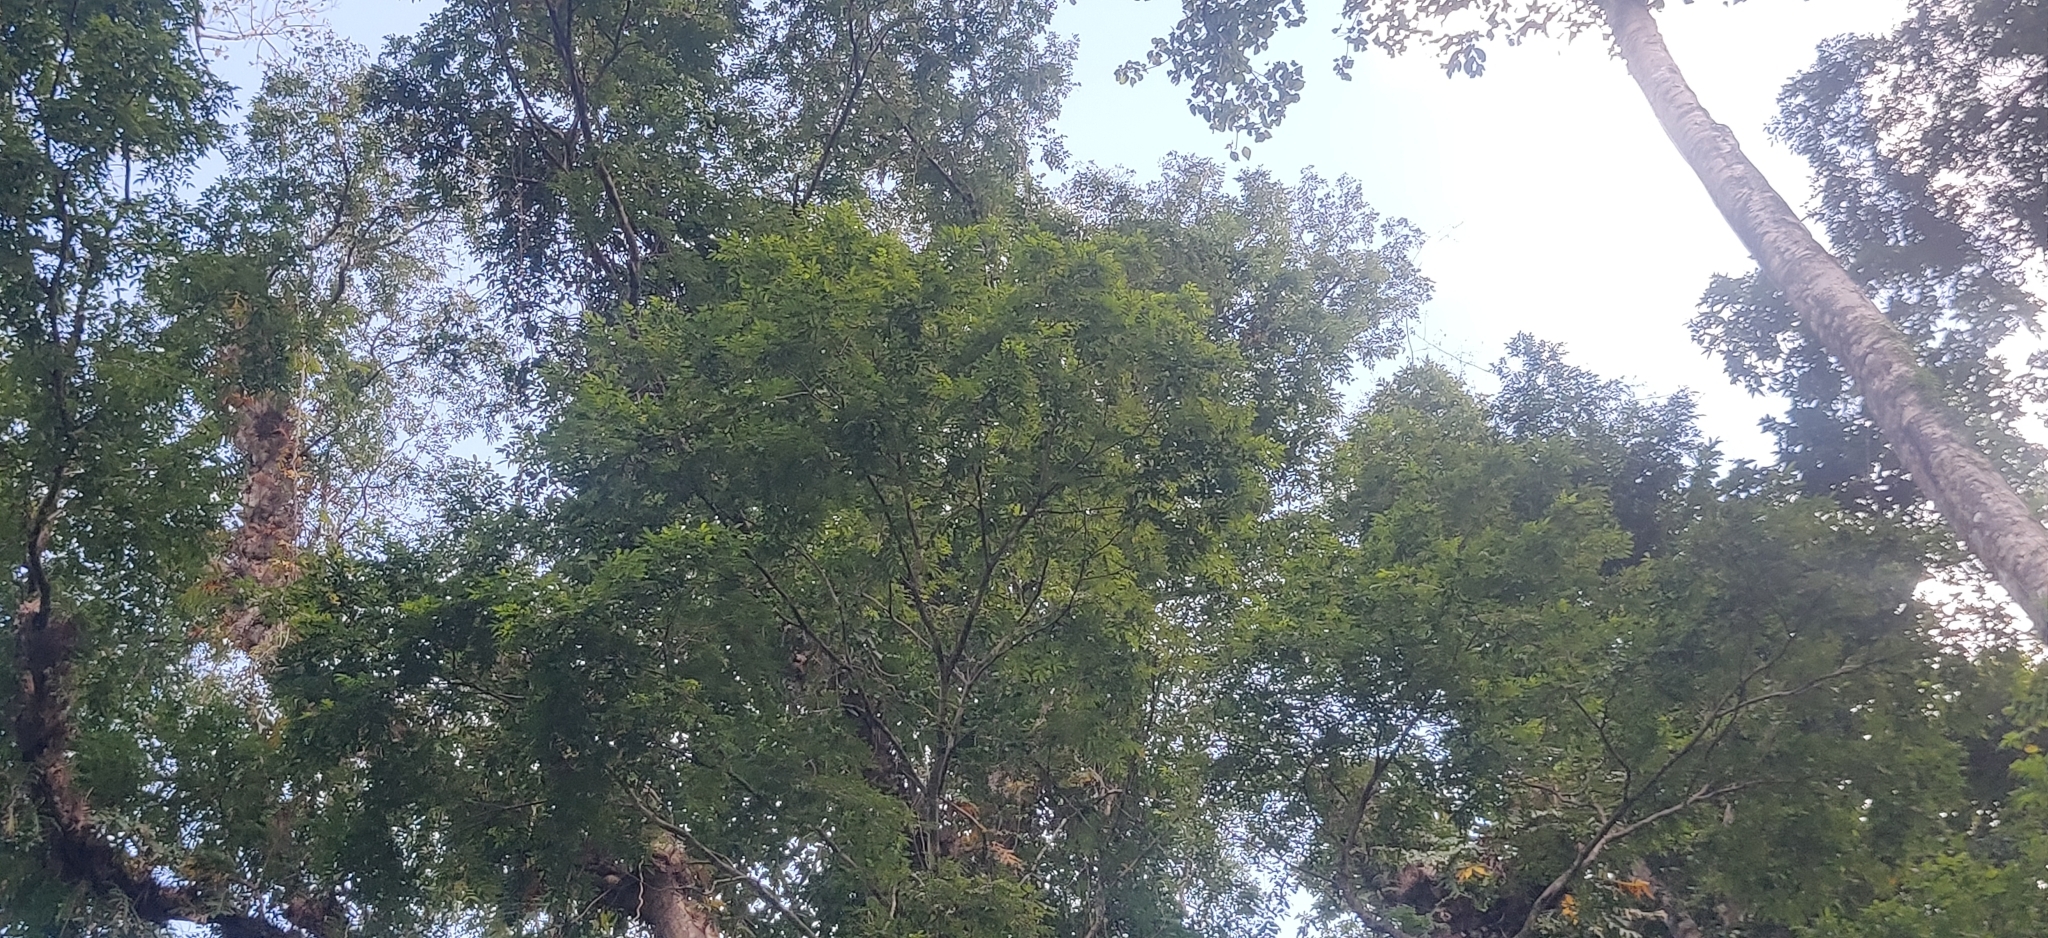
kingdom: Plantae
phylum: Tracheophyta
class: Magnoliopsida
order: Fabales
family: Fabaceae
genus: Pterocarpus
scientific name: Pterocarpus dalbergioides
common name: Andaman redwood
